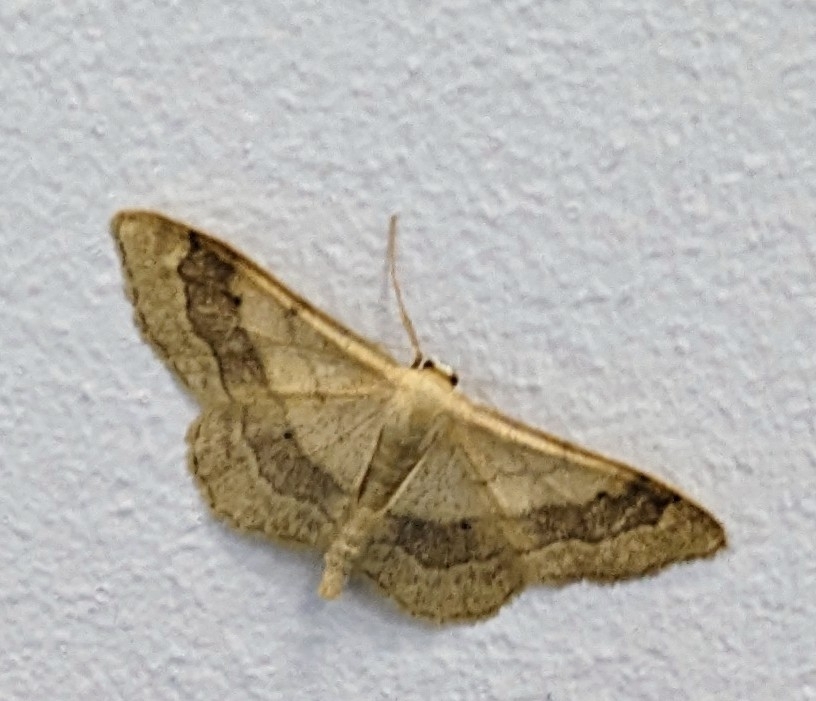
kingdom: Animalia
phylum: Arthropoda
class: Insecta
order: Lepidoptera
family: Geometridae
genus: Idaea
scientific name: Idaea aversata
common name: Riband wave
